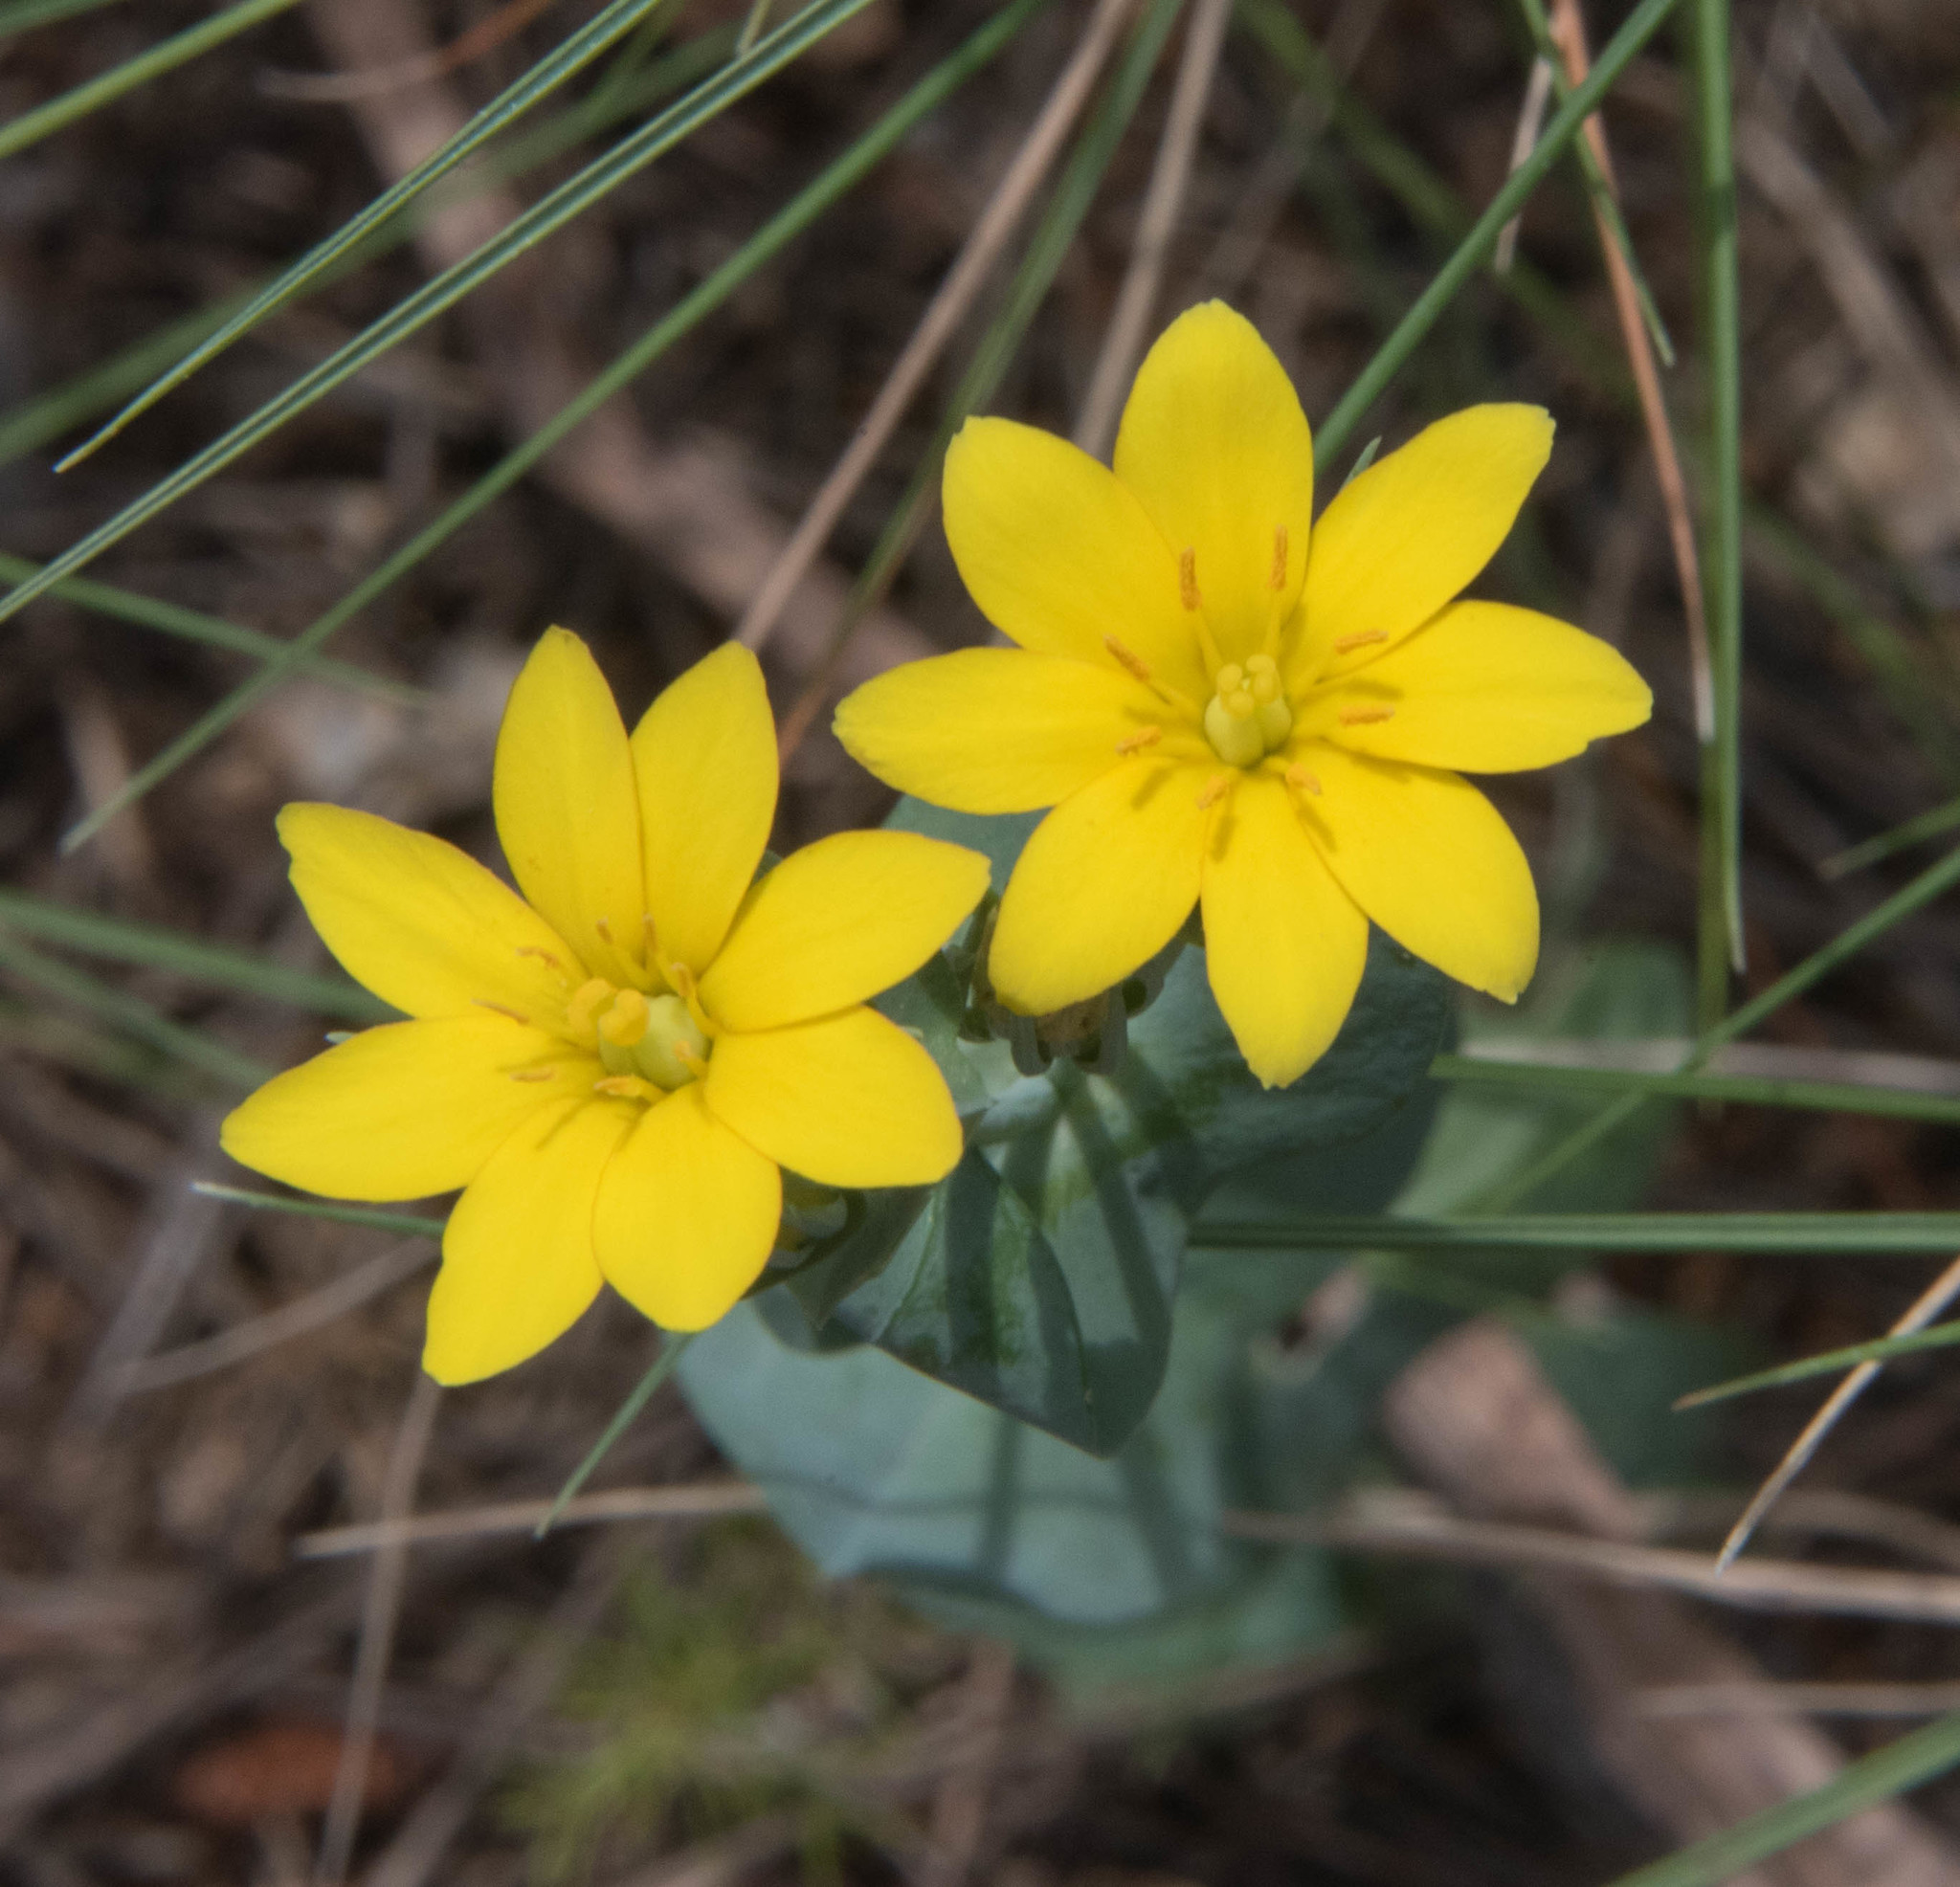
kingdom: Plantae
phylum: Tracheophyta
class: Magnoliopsida
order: Gentianales
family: Gentianaceae
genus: Blackstonia
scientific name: Blackstonia perfoliata
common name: Yellow-wort
